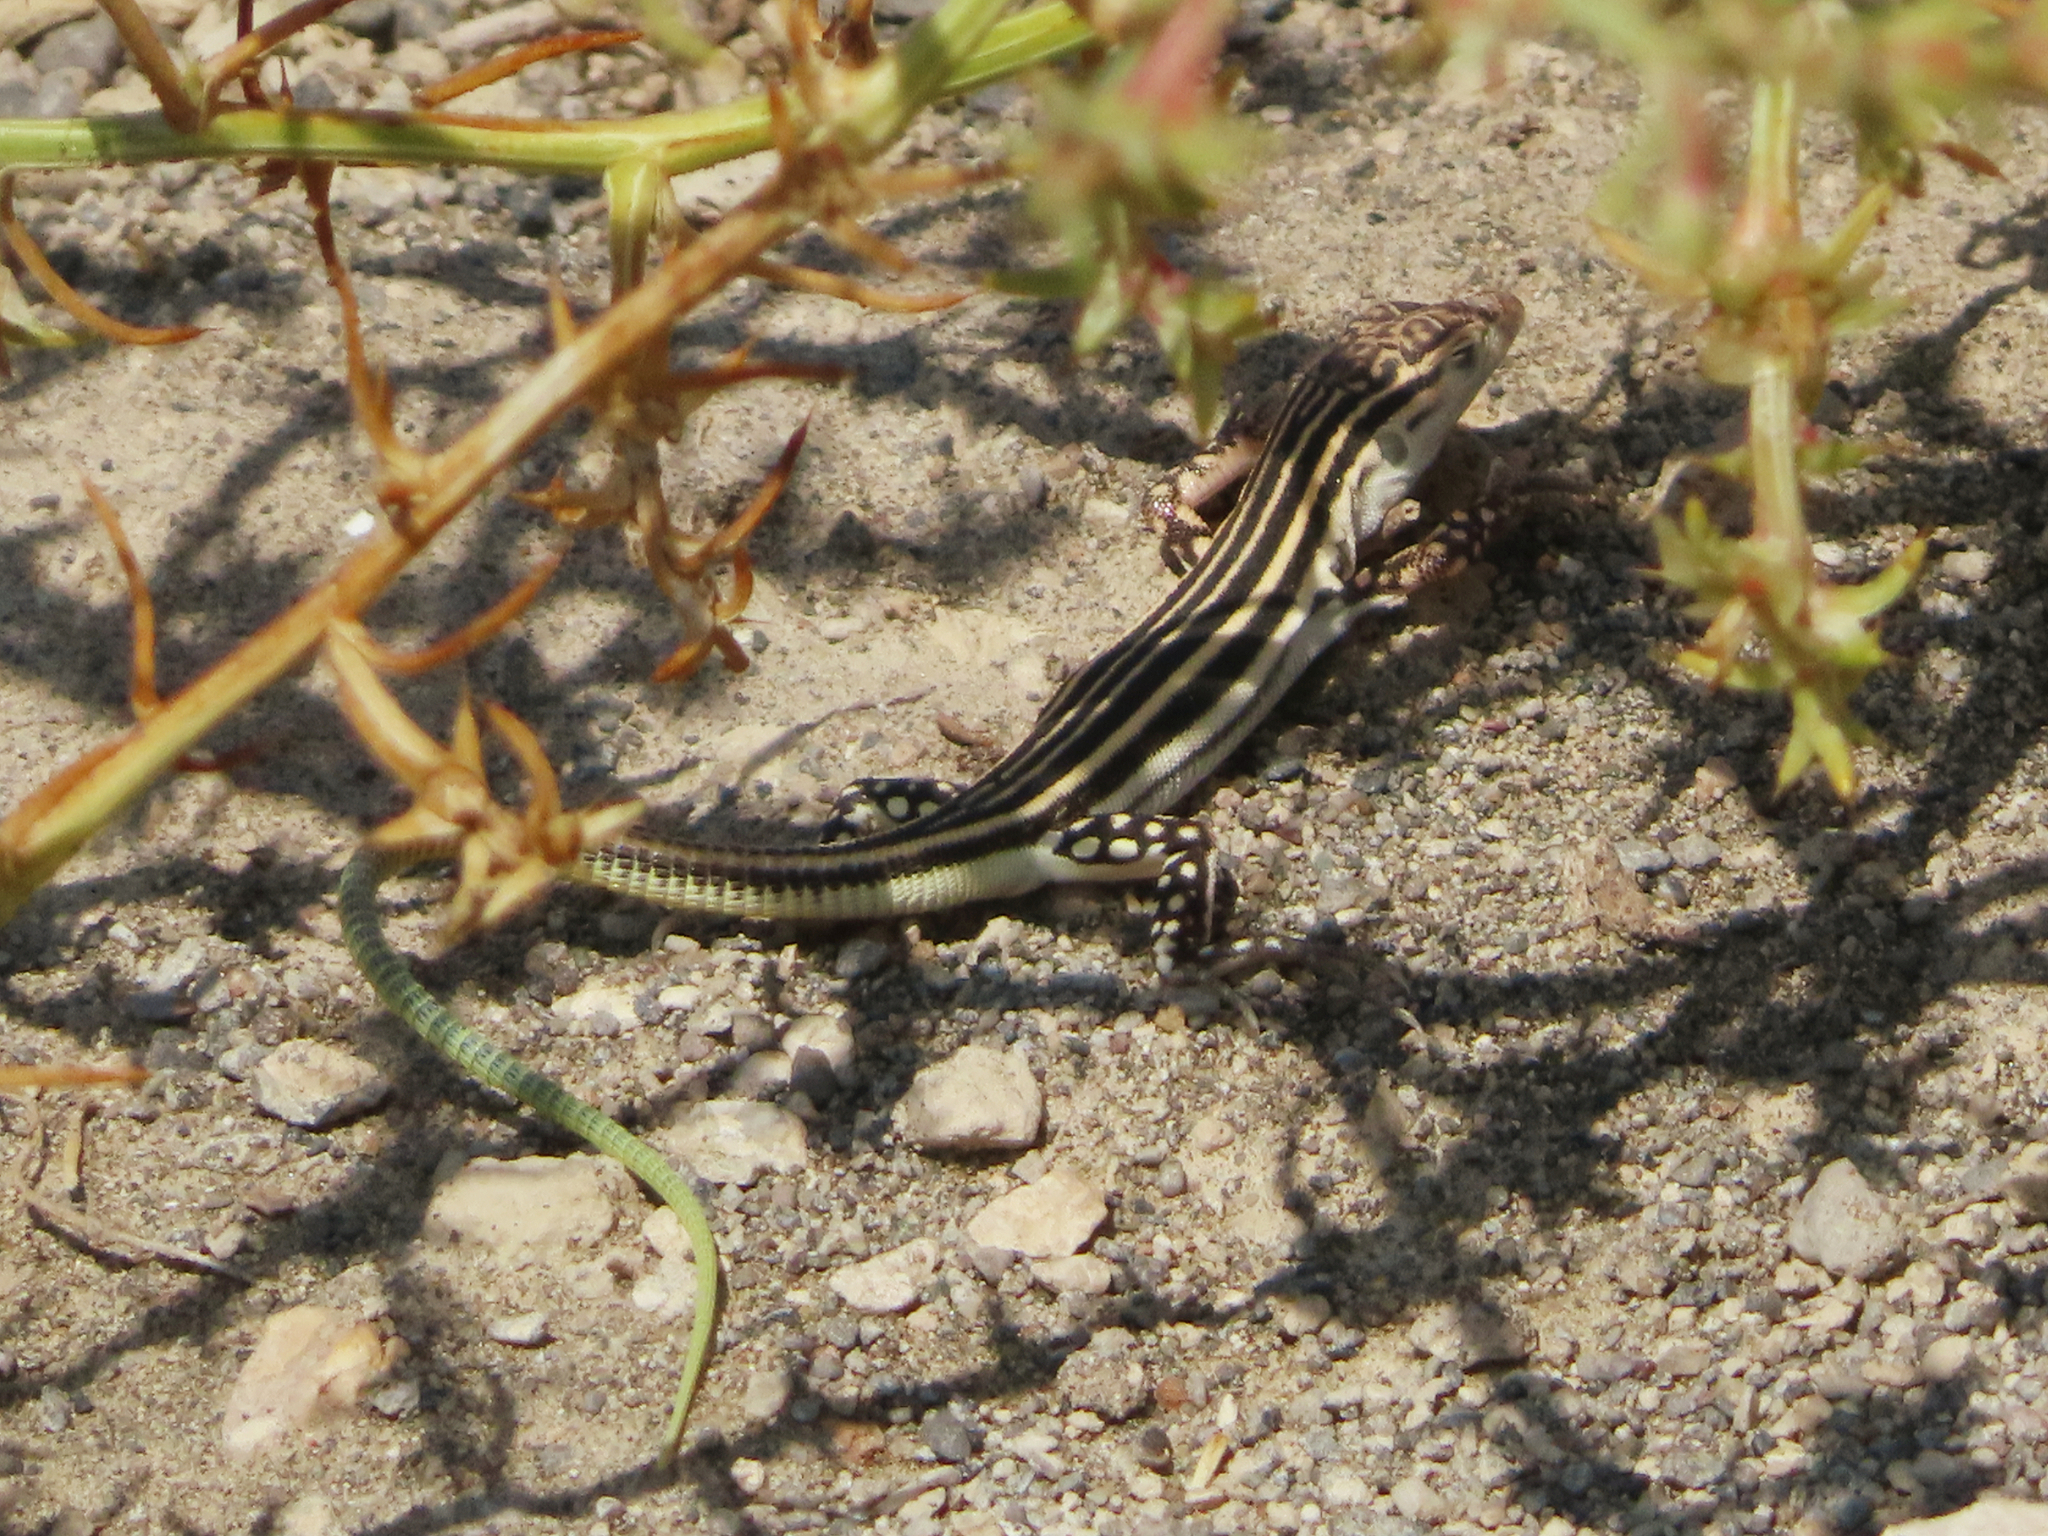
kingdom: Animalia
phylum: Chordata
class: Squamata
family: Lacertidae
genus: Eremias
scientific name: Eremias pleskei
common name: Pleske's racerunner
